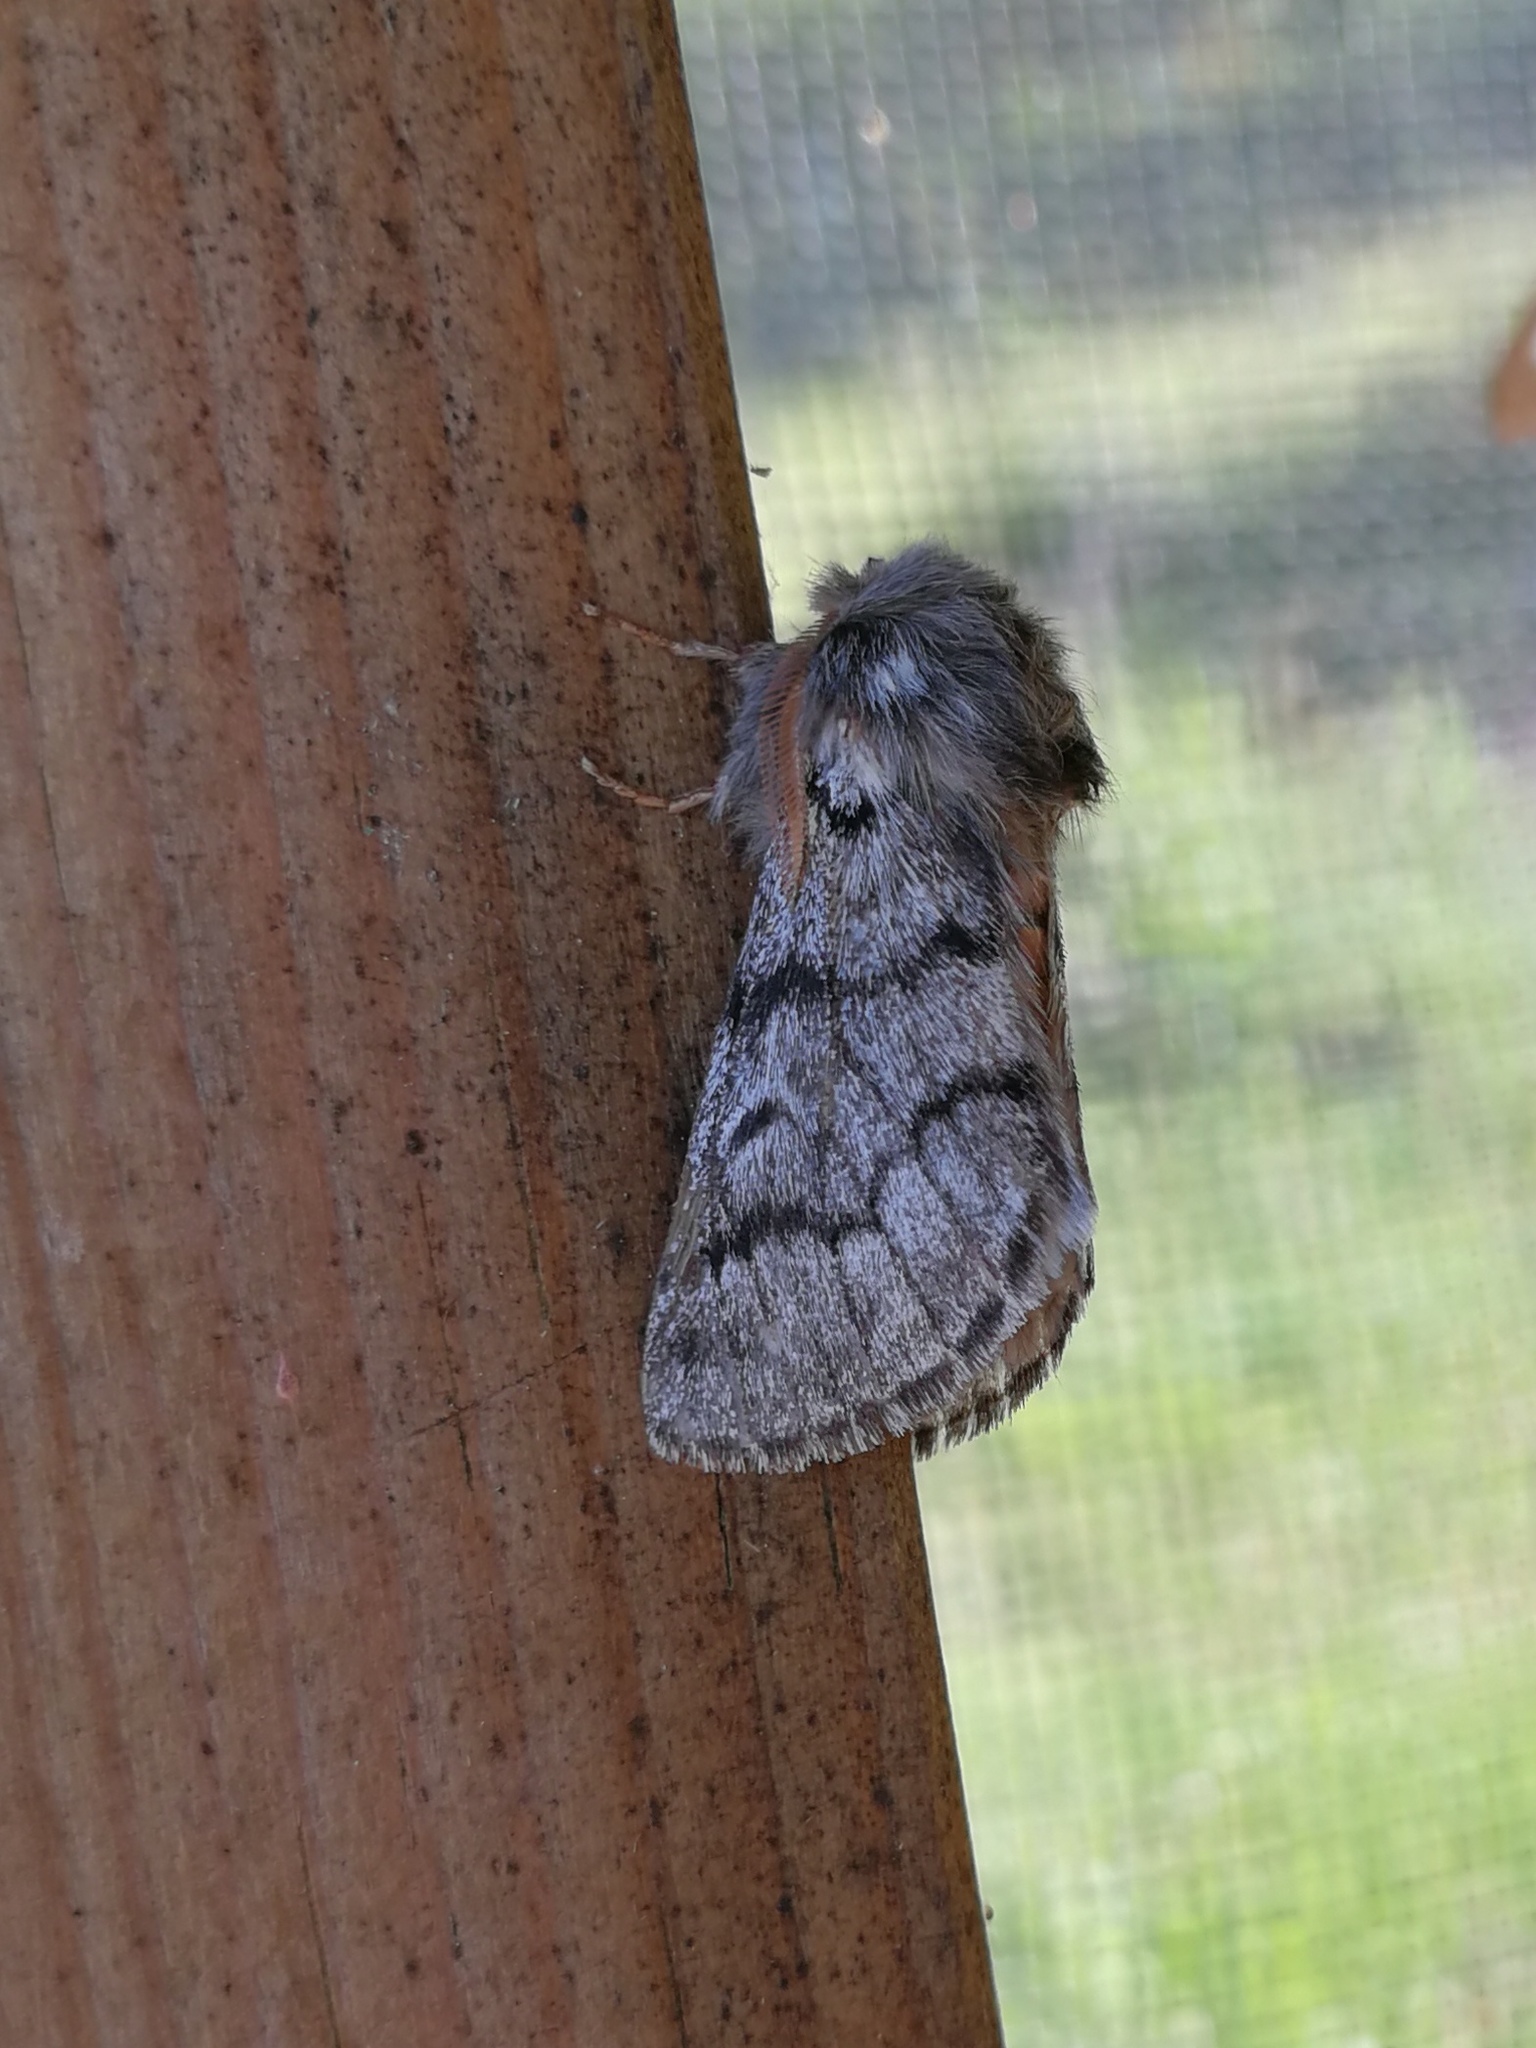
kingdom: Animalia
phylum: Arthropoda
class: Insecta
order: Lepidoptera
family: Notodontidae
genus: Thaumetopoea
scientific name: Thaumetopoea pityocampa
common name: Pine processionary
